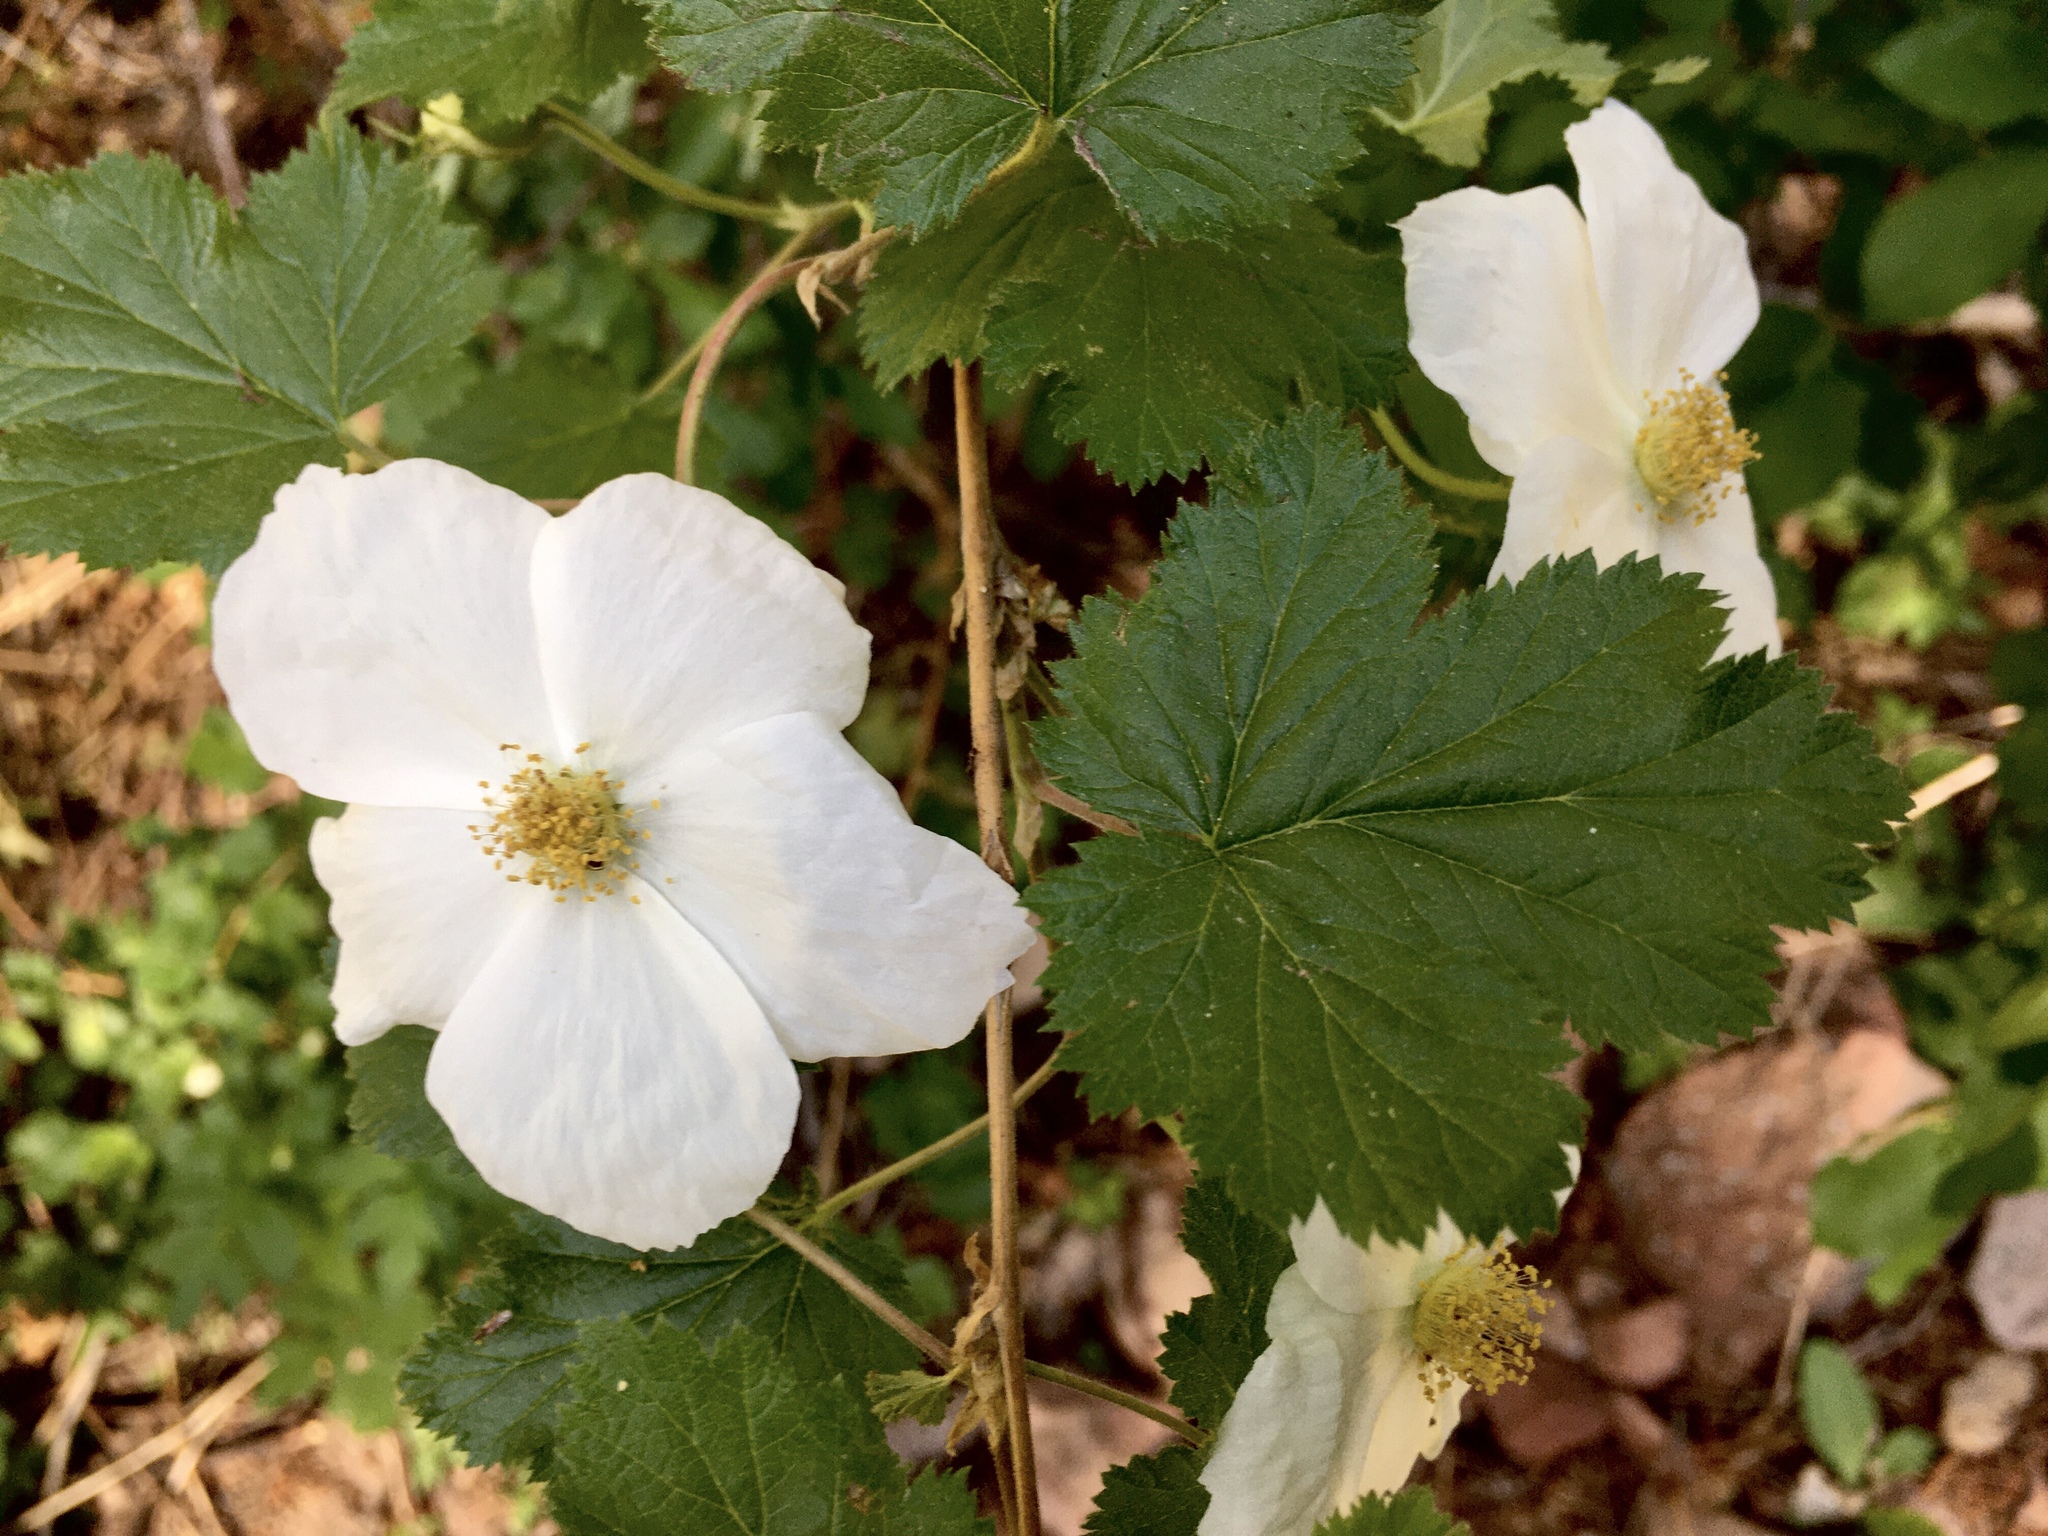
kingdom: Plantae
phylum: Tracheophyta
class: Magnoliopsida
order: Rosales
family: Rosaceae
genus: Rubus
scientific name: Rubus deliciosus
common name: Rocky mountain raspberry
